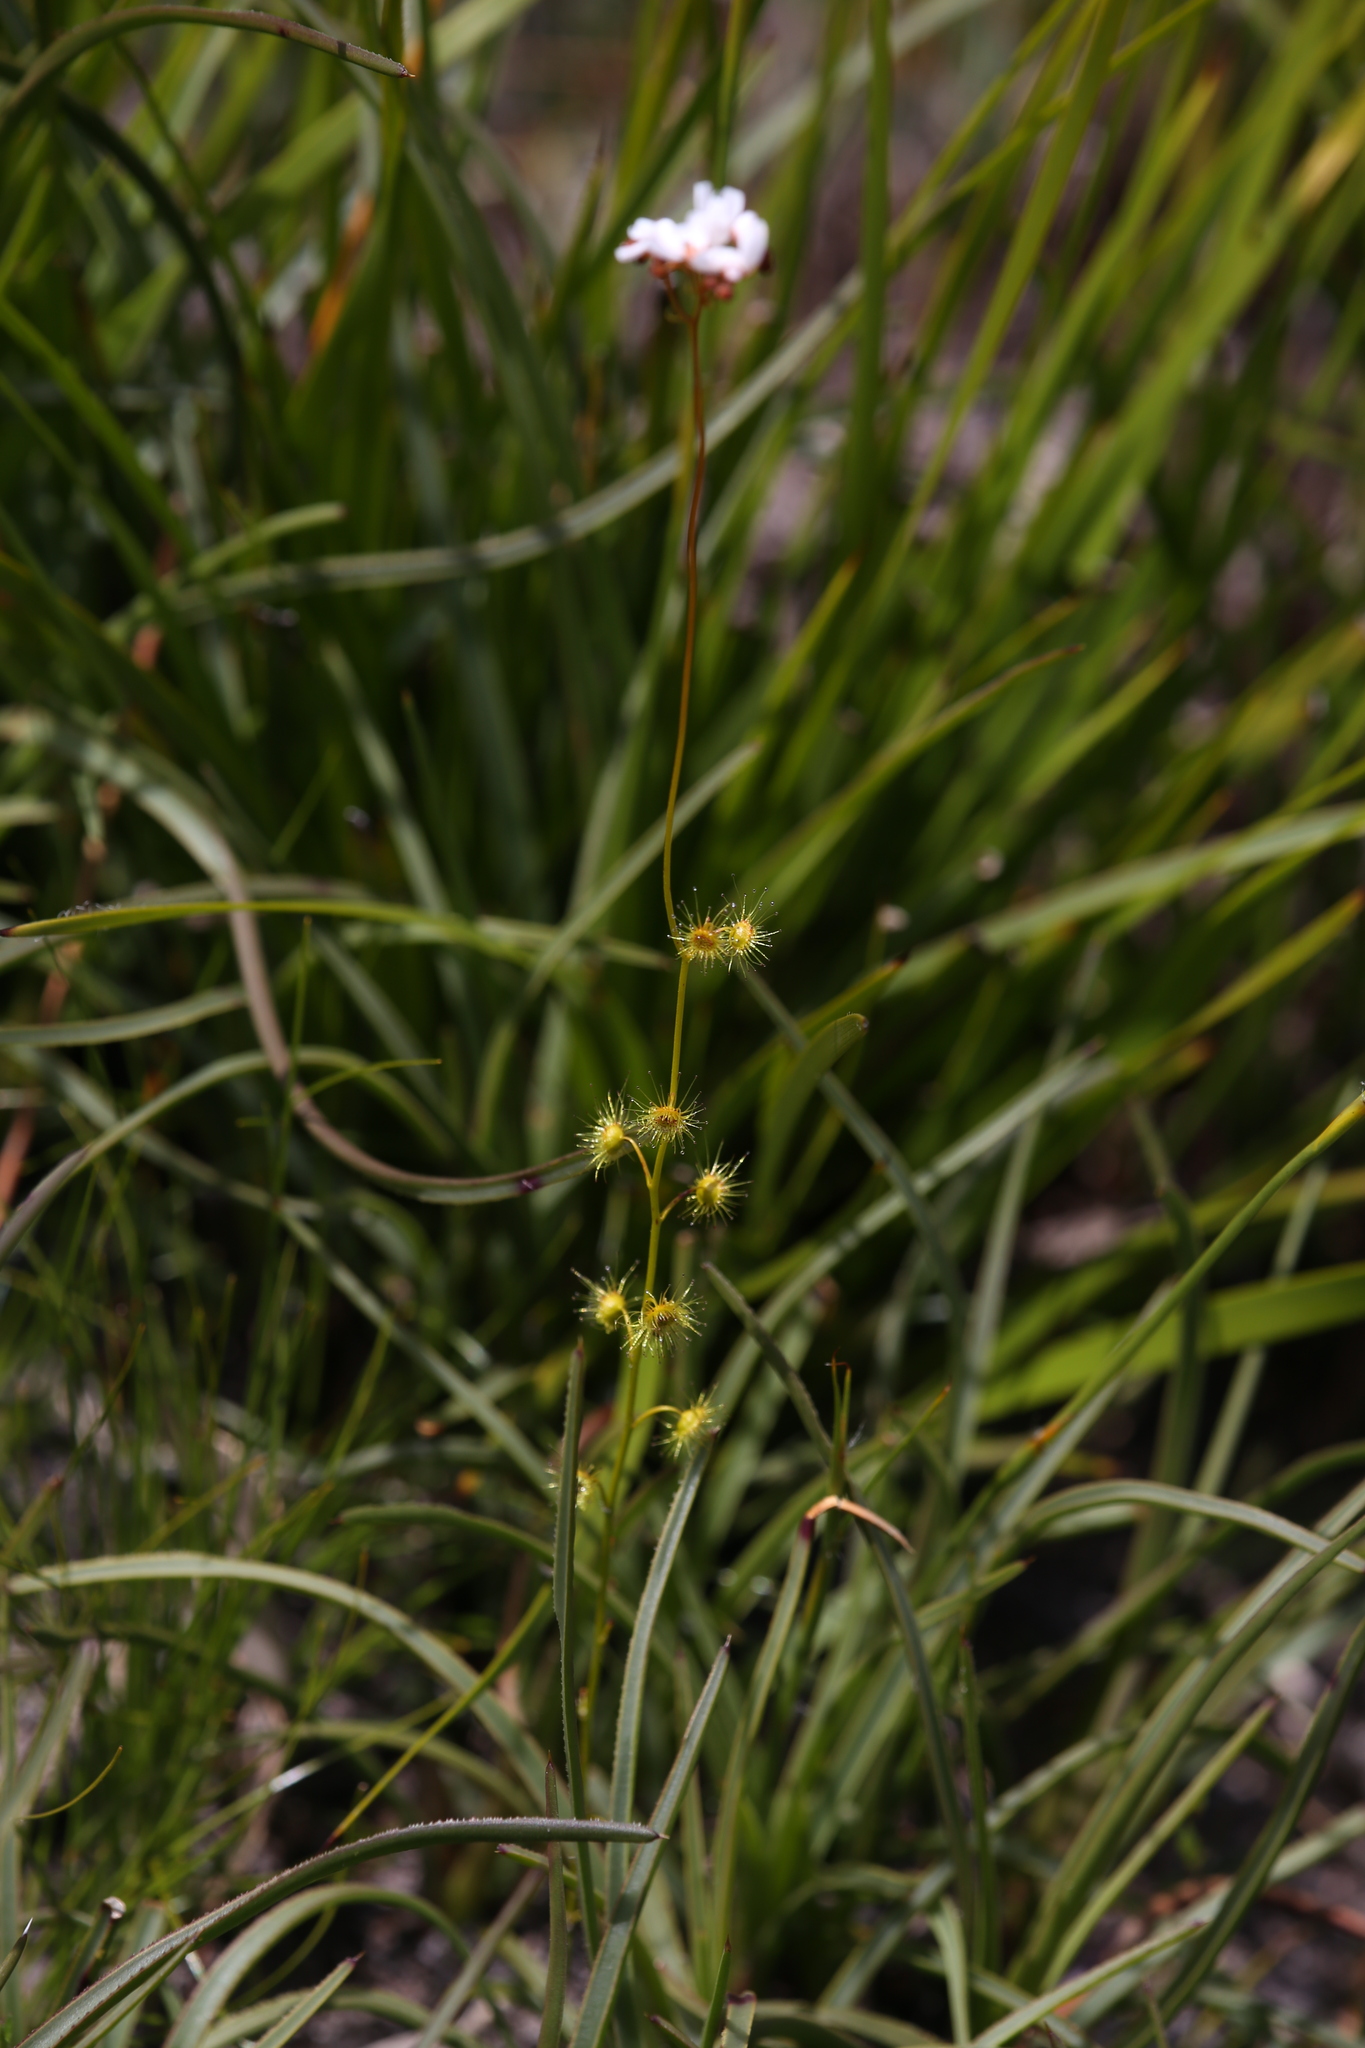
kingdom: Plantae
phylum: Tracheophyta
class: Magnoliopsida
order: Caryophyllales
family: Droseraceae
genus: Drosera
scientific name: Drosera myriantha
